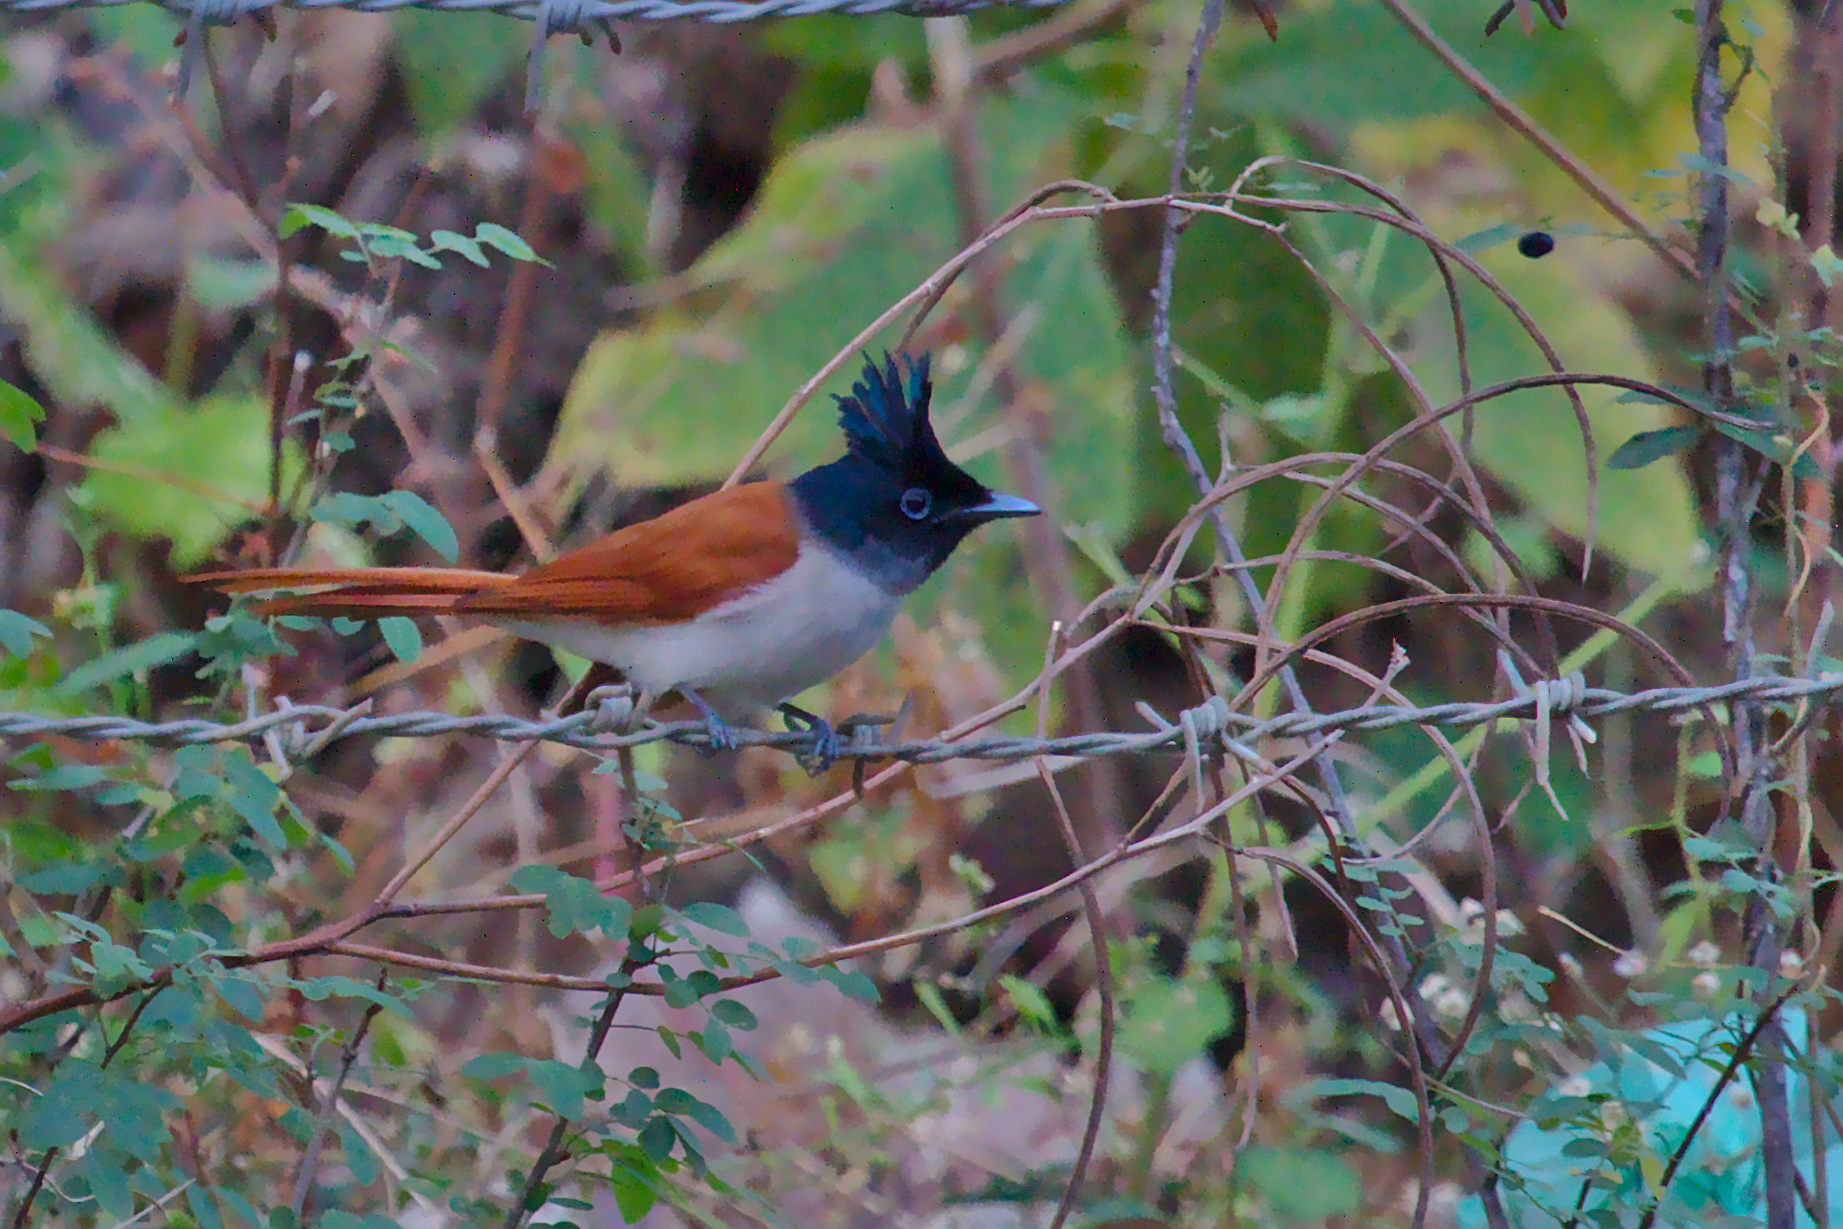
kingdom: Animalia
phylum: Chordata
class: Aves
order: Passeriformes
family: Monarchidae
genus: Terpsiphone
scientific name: Terpsiphone paradisi
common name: Indian paradise flycatcher
